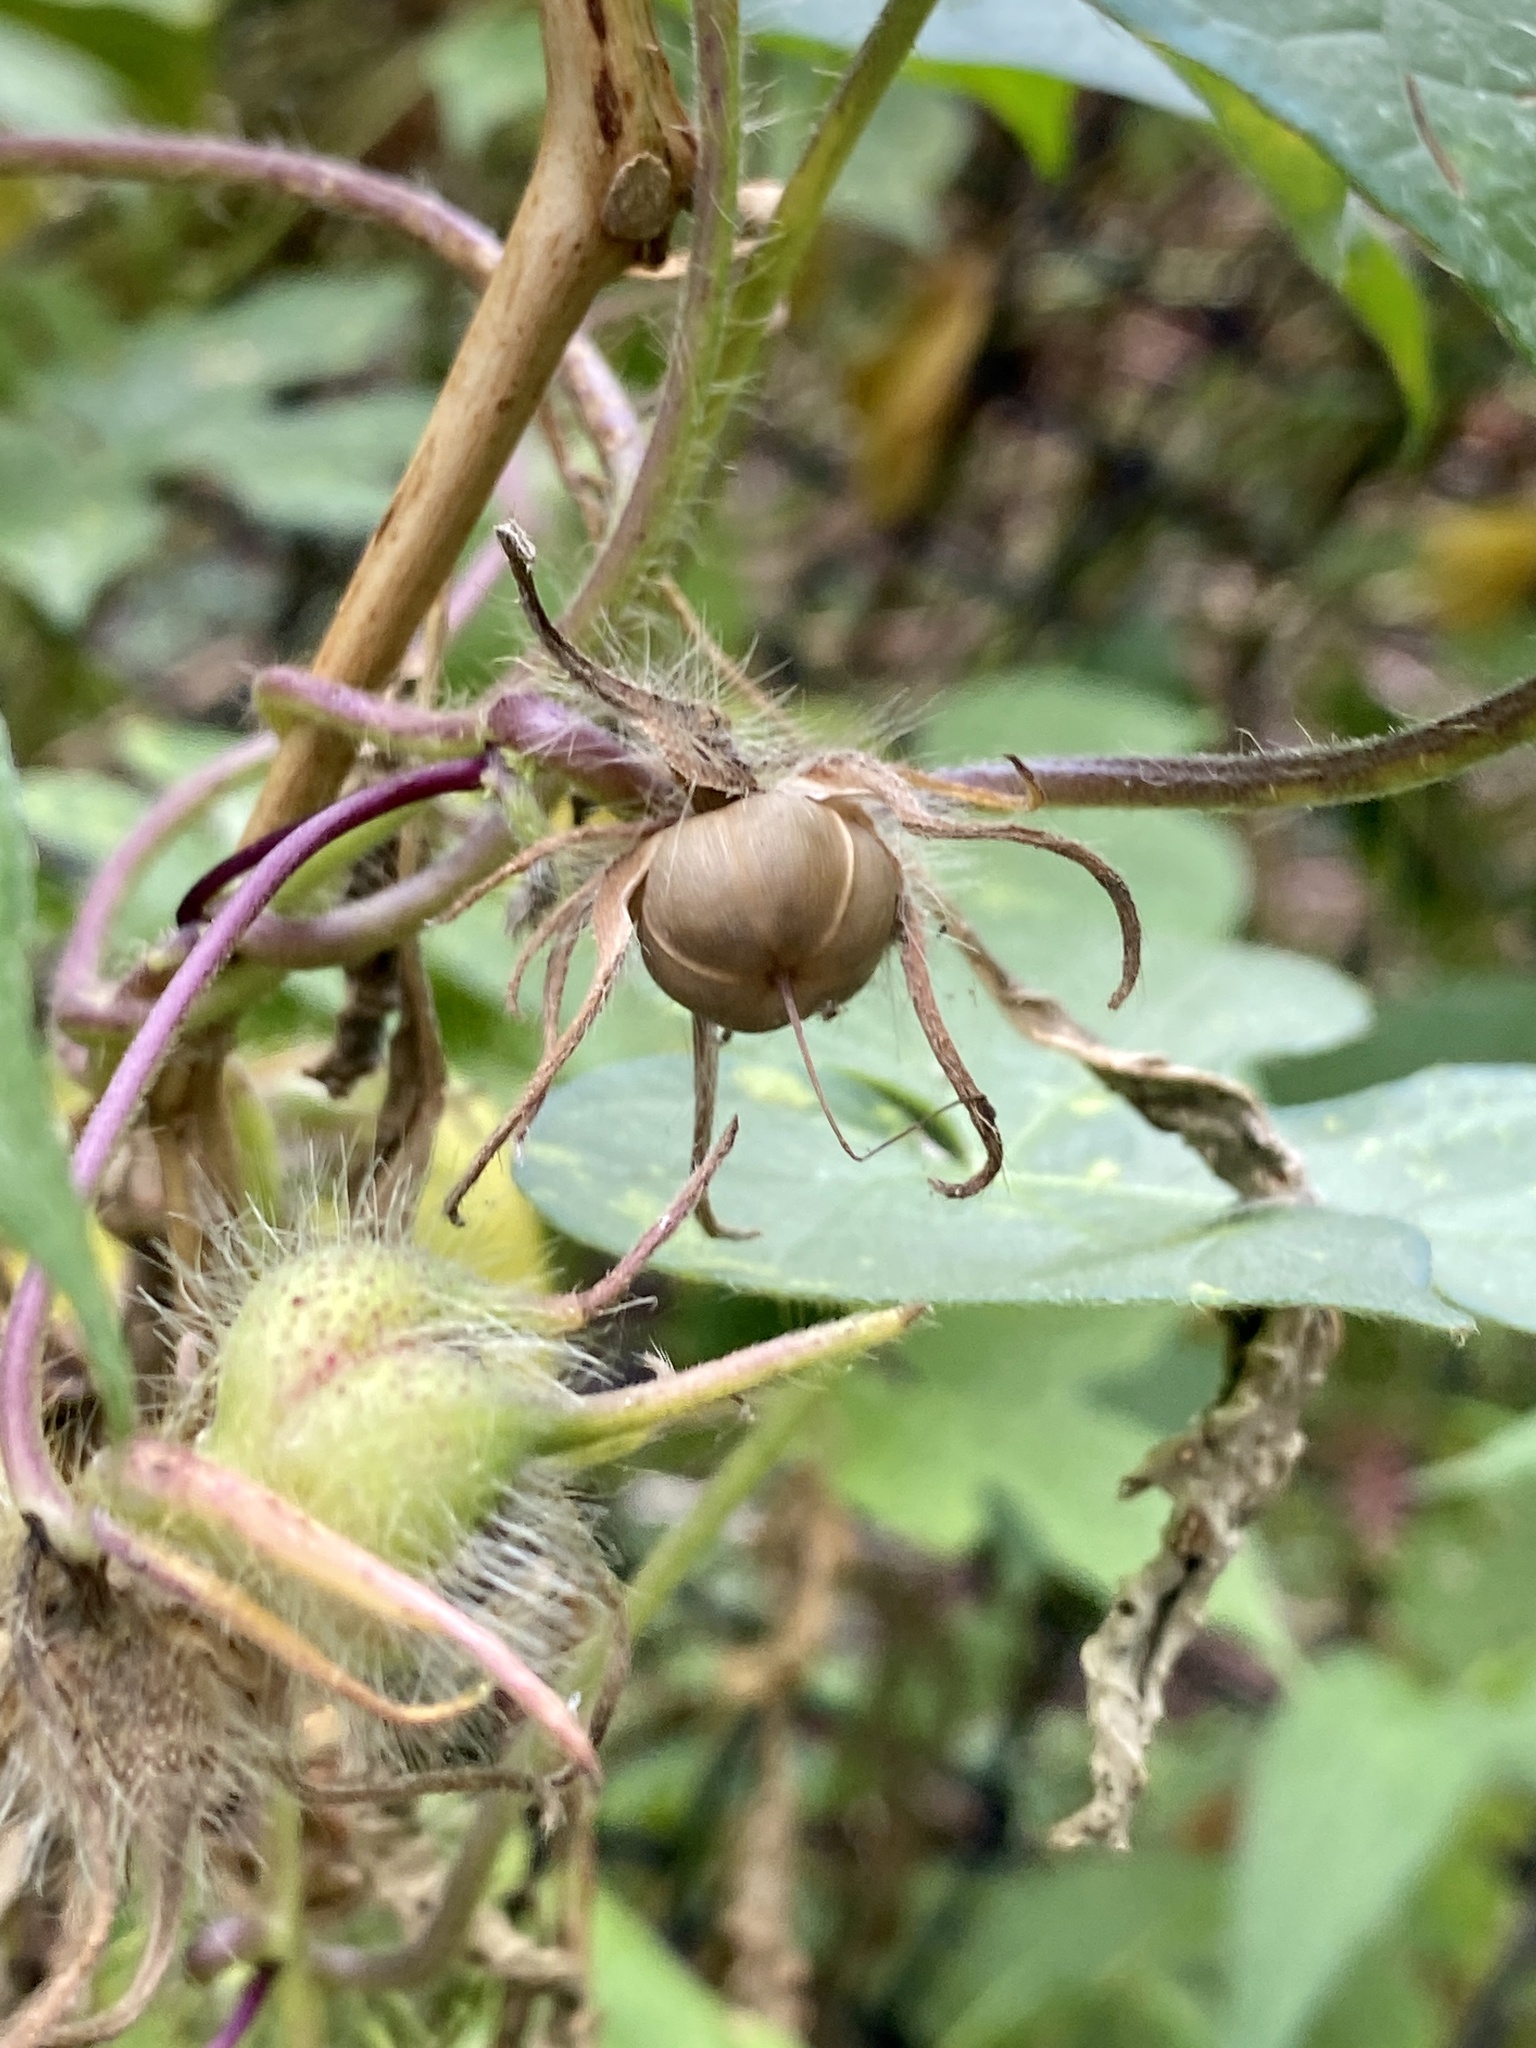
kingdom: Plantae
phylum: Tracheophyta
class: Magnoliopsida
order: Solanales
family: Convolvulaceae
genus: Ipomoea
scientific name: Ipomoea hederacea
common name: Ivy-leaved morning-glory
